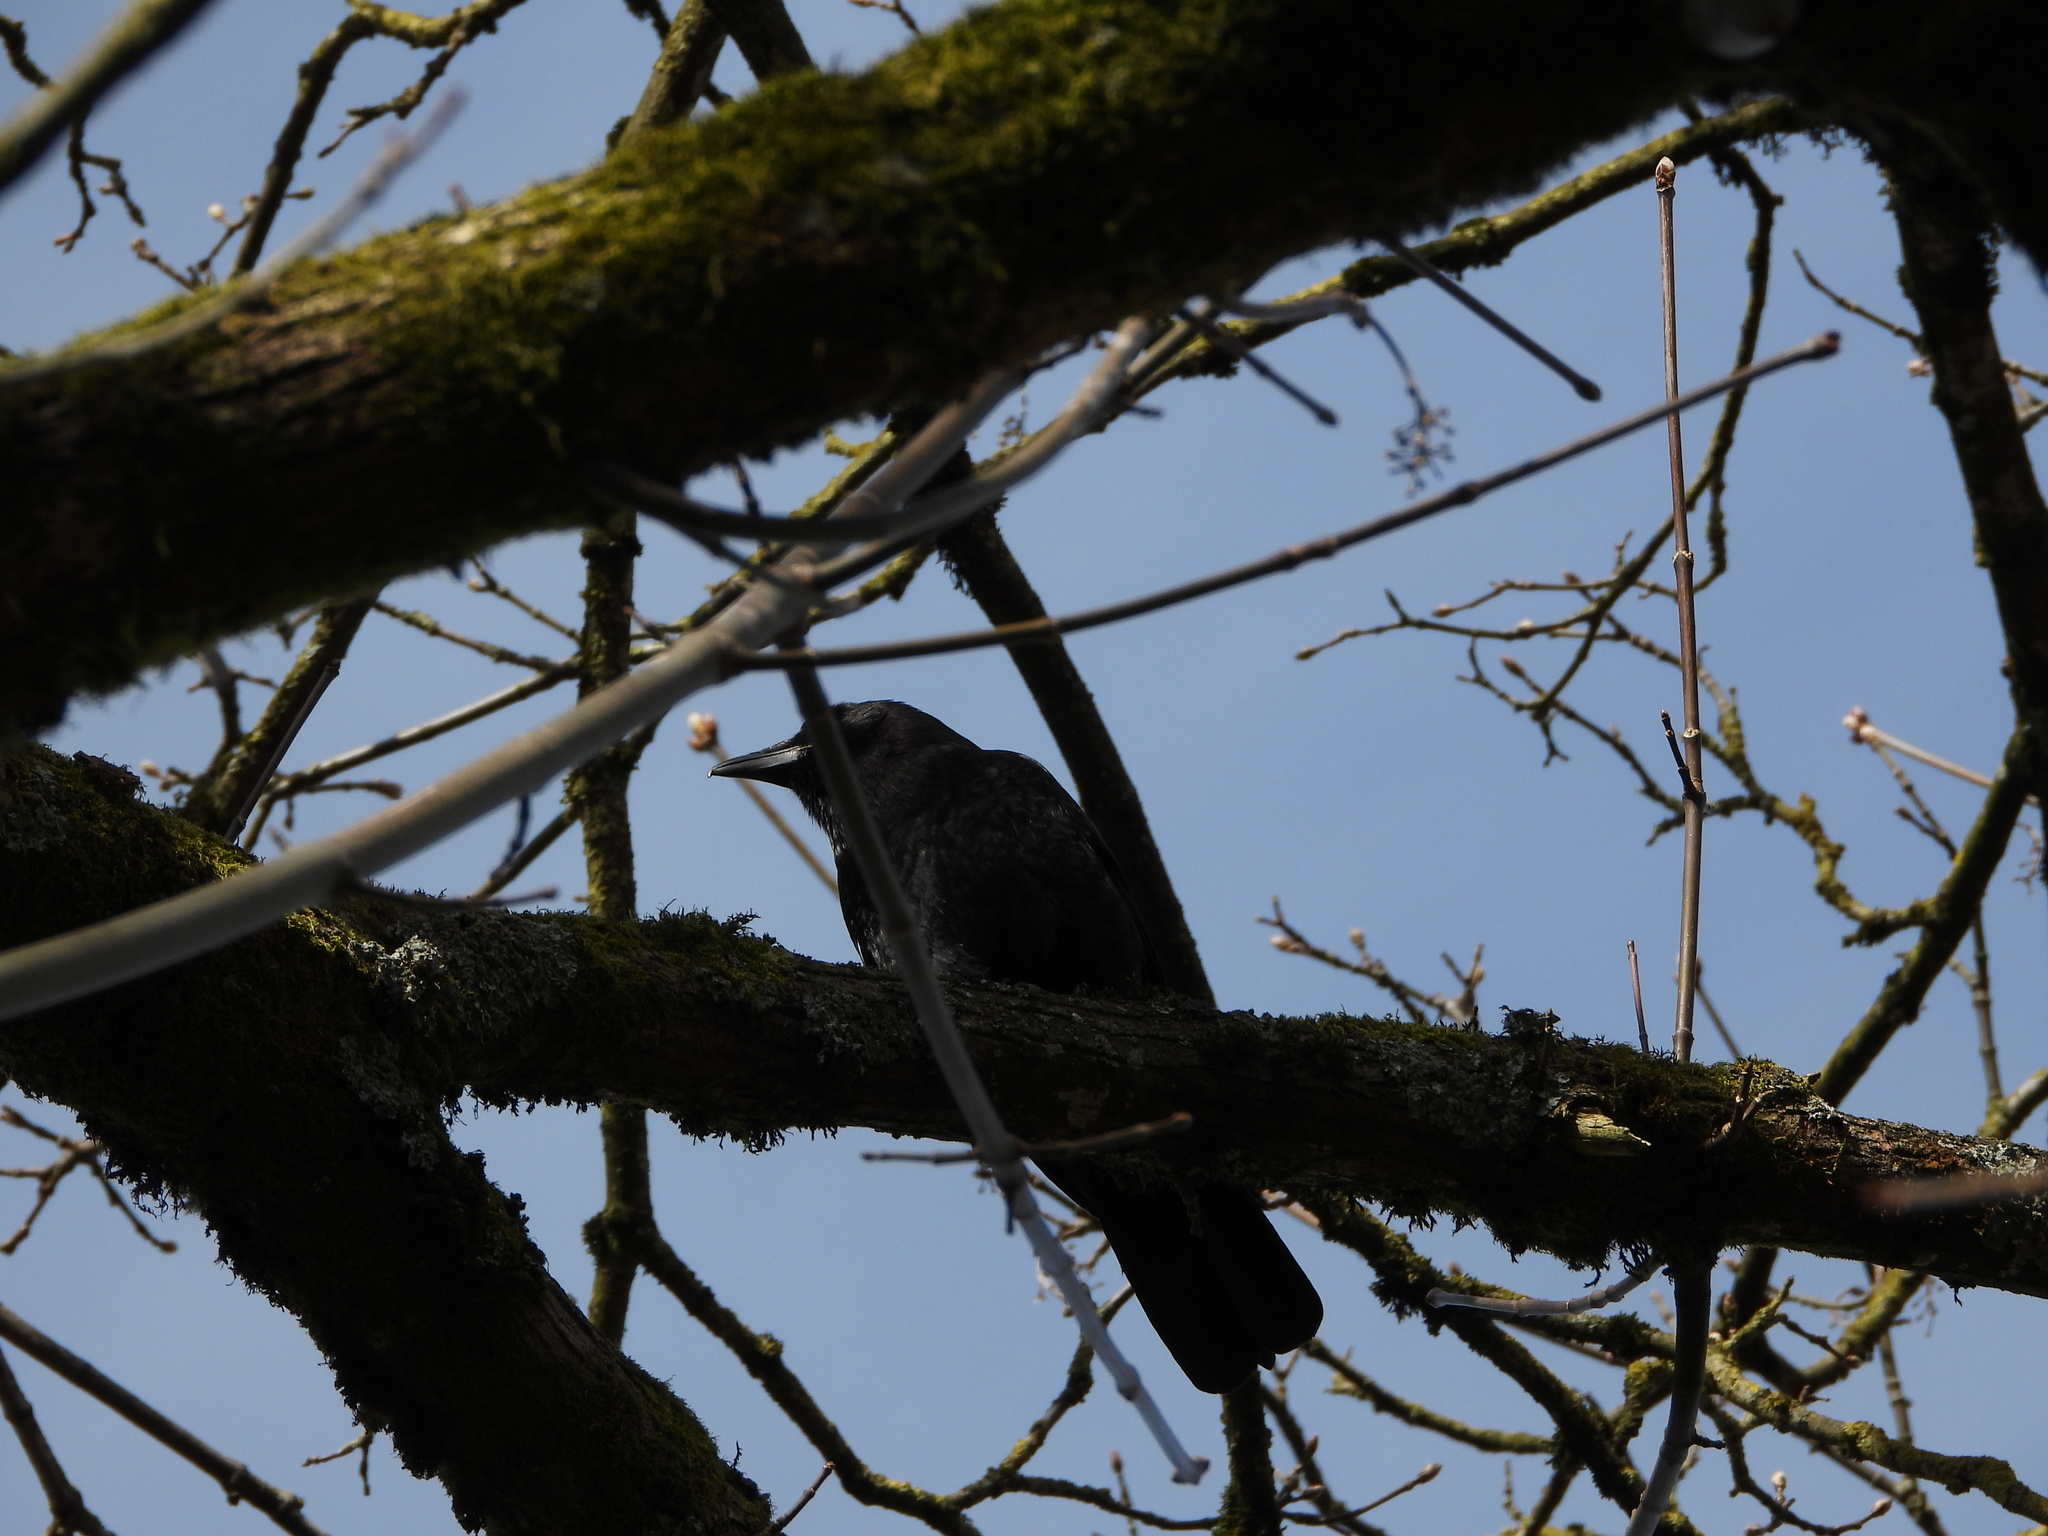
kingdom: Animalia
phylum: Chordata
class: Aves
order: Passeriformes
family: Corvidae
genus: Corvus
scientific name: Corvus brachyrhynchos
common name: American crow
